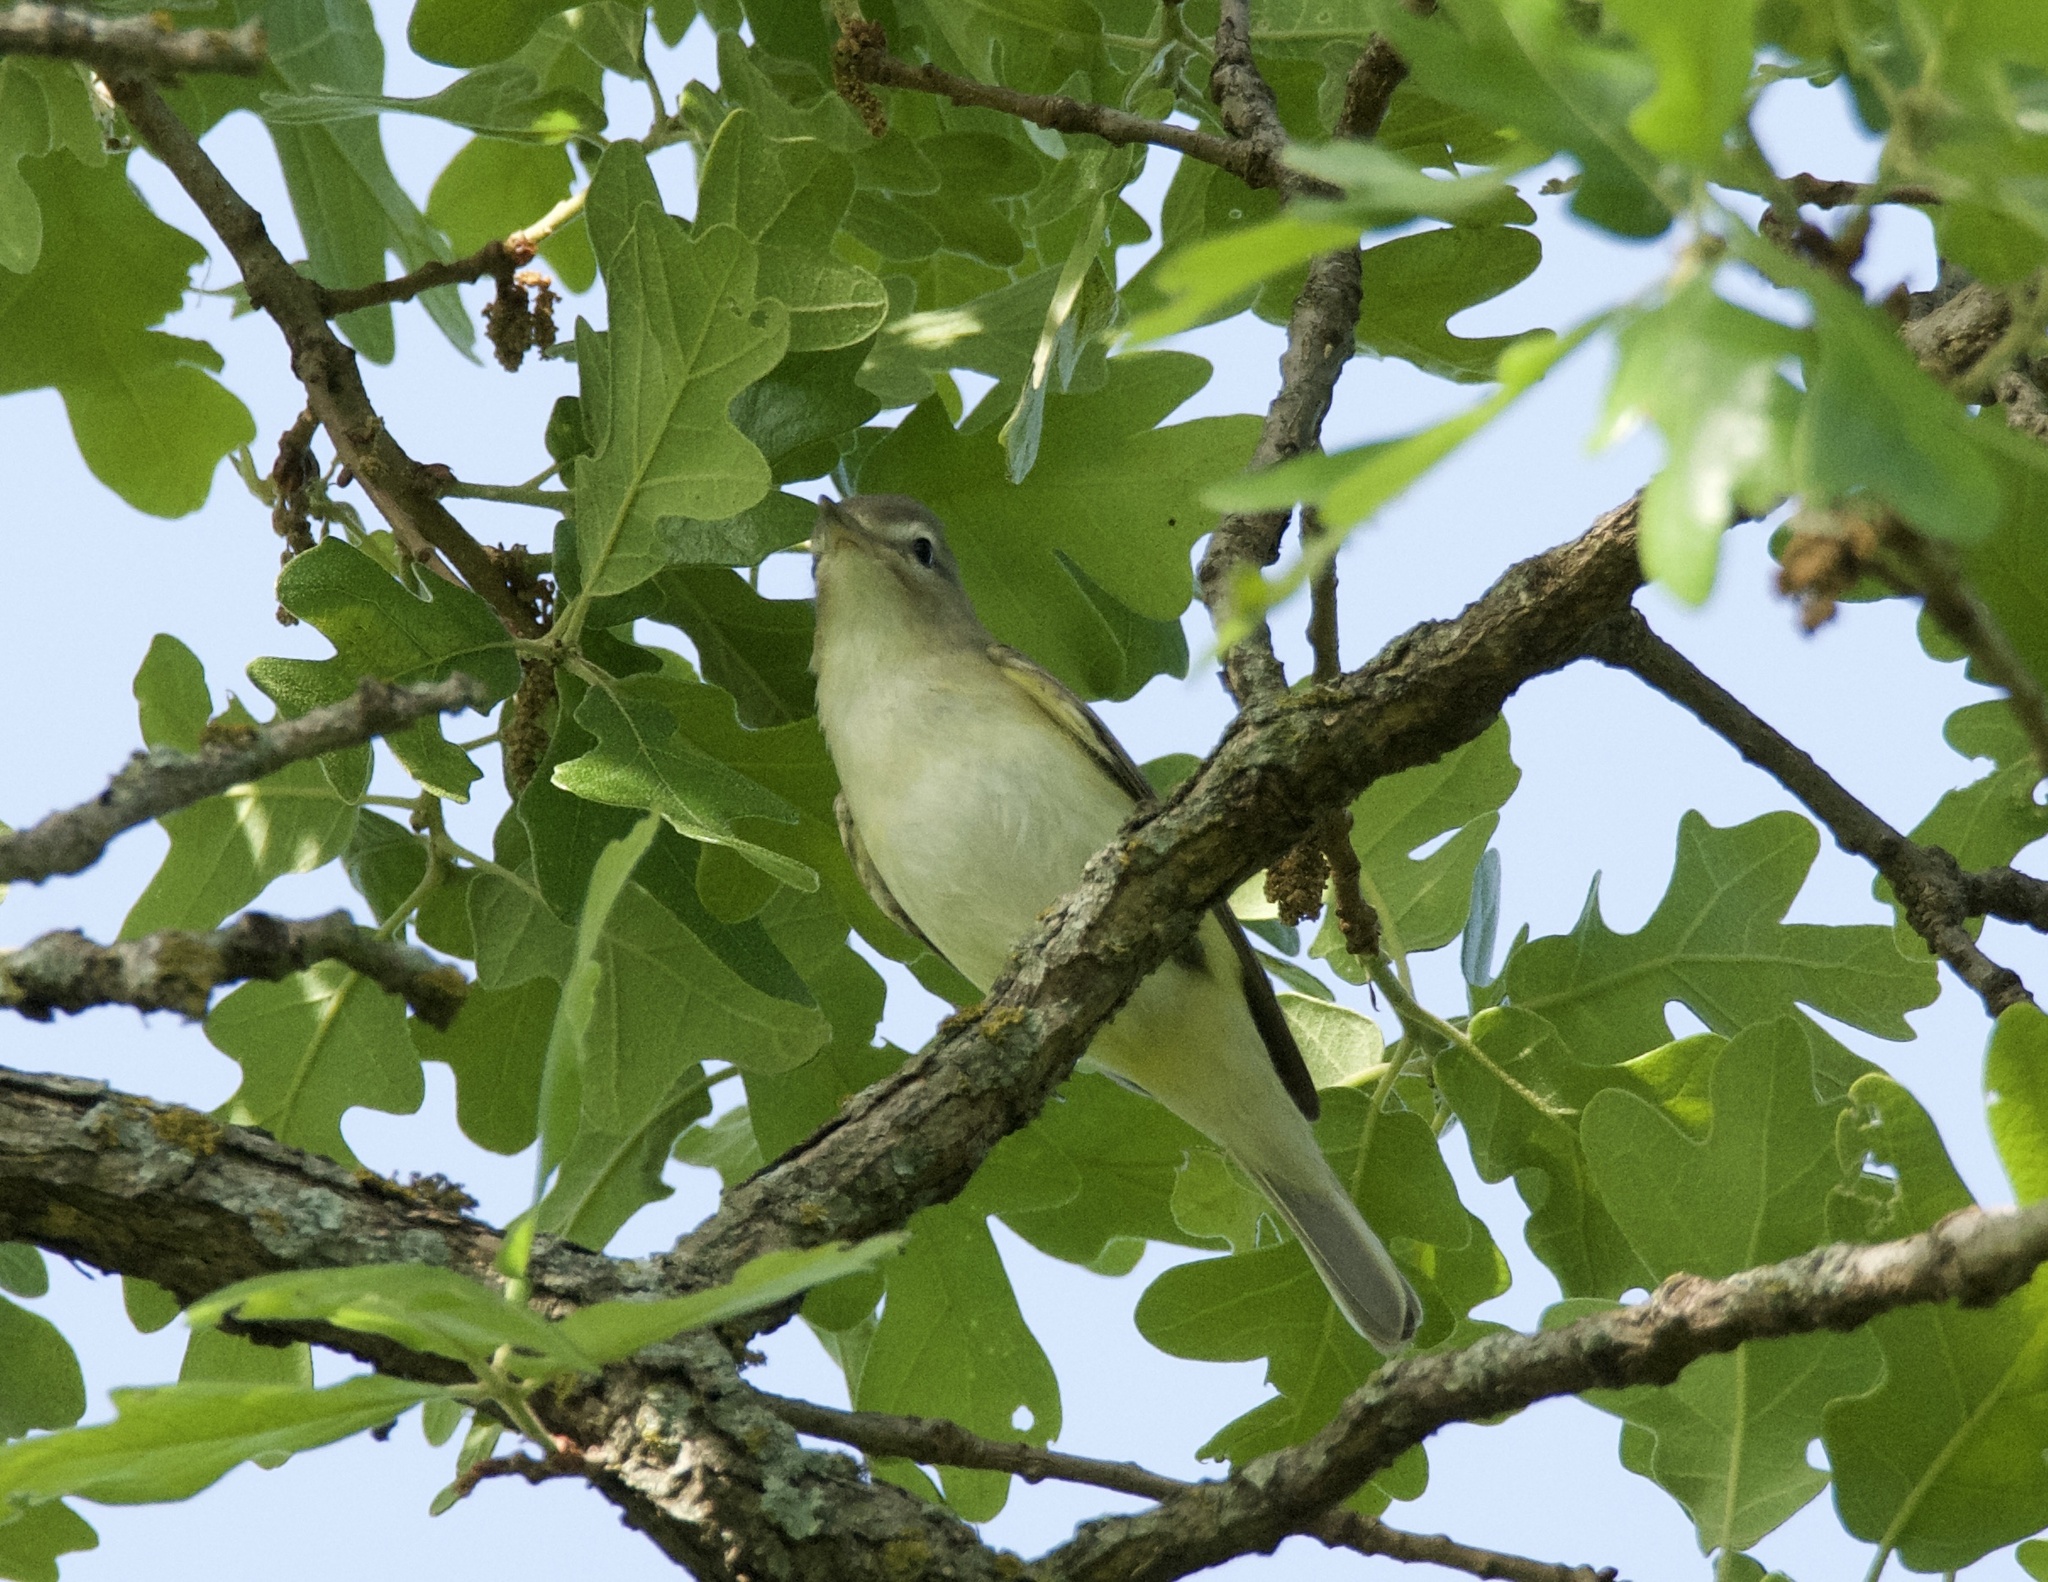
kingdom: Animalia
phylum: Chordata
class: Aves
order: Passeriformes
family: Vireonidae
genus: Vireo
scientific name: Vireo gilvus
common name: Warbling vireo
